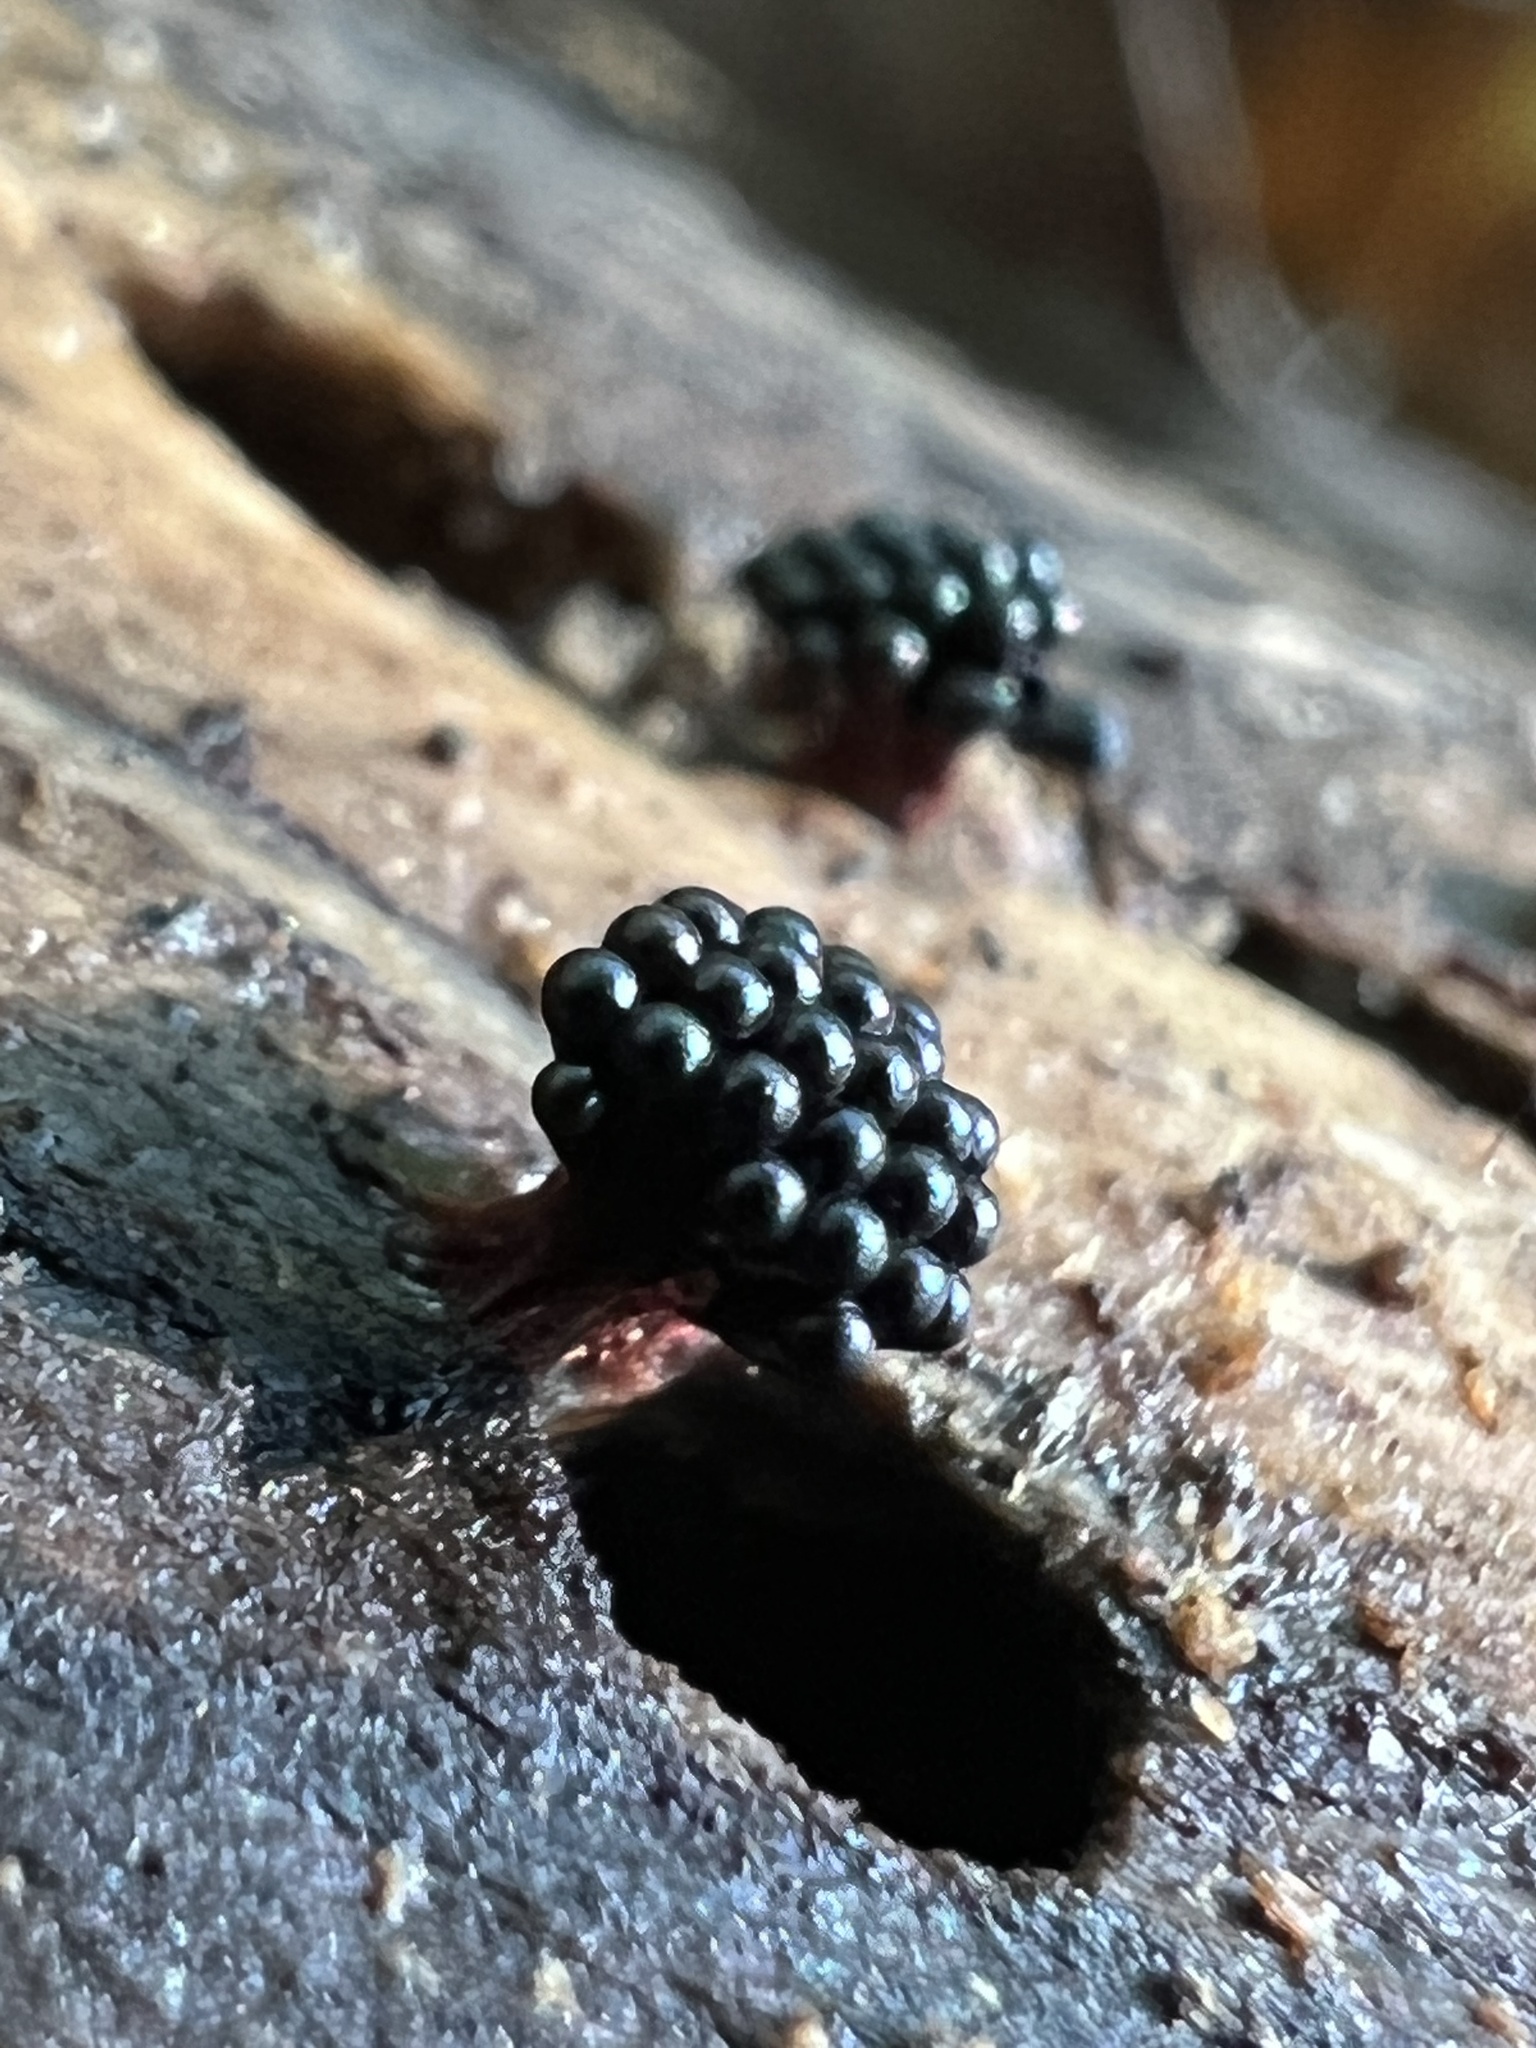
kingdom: Protozoa
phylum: Mycetozoa
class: Myxomycetes
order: Trichiales
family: Trichiaceae
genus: Metatrichia
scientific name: Metatrichia vesparia
